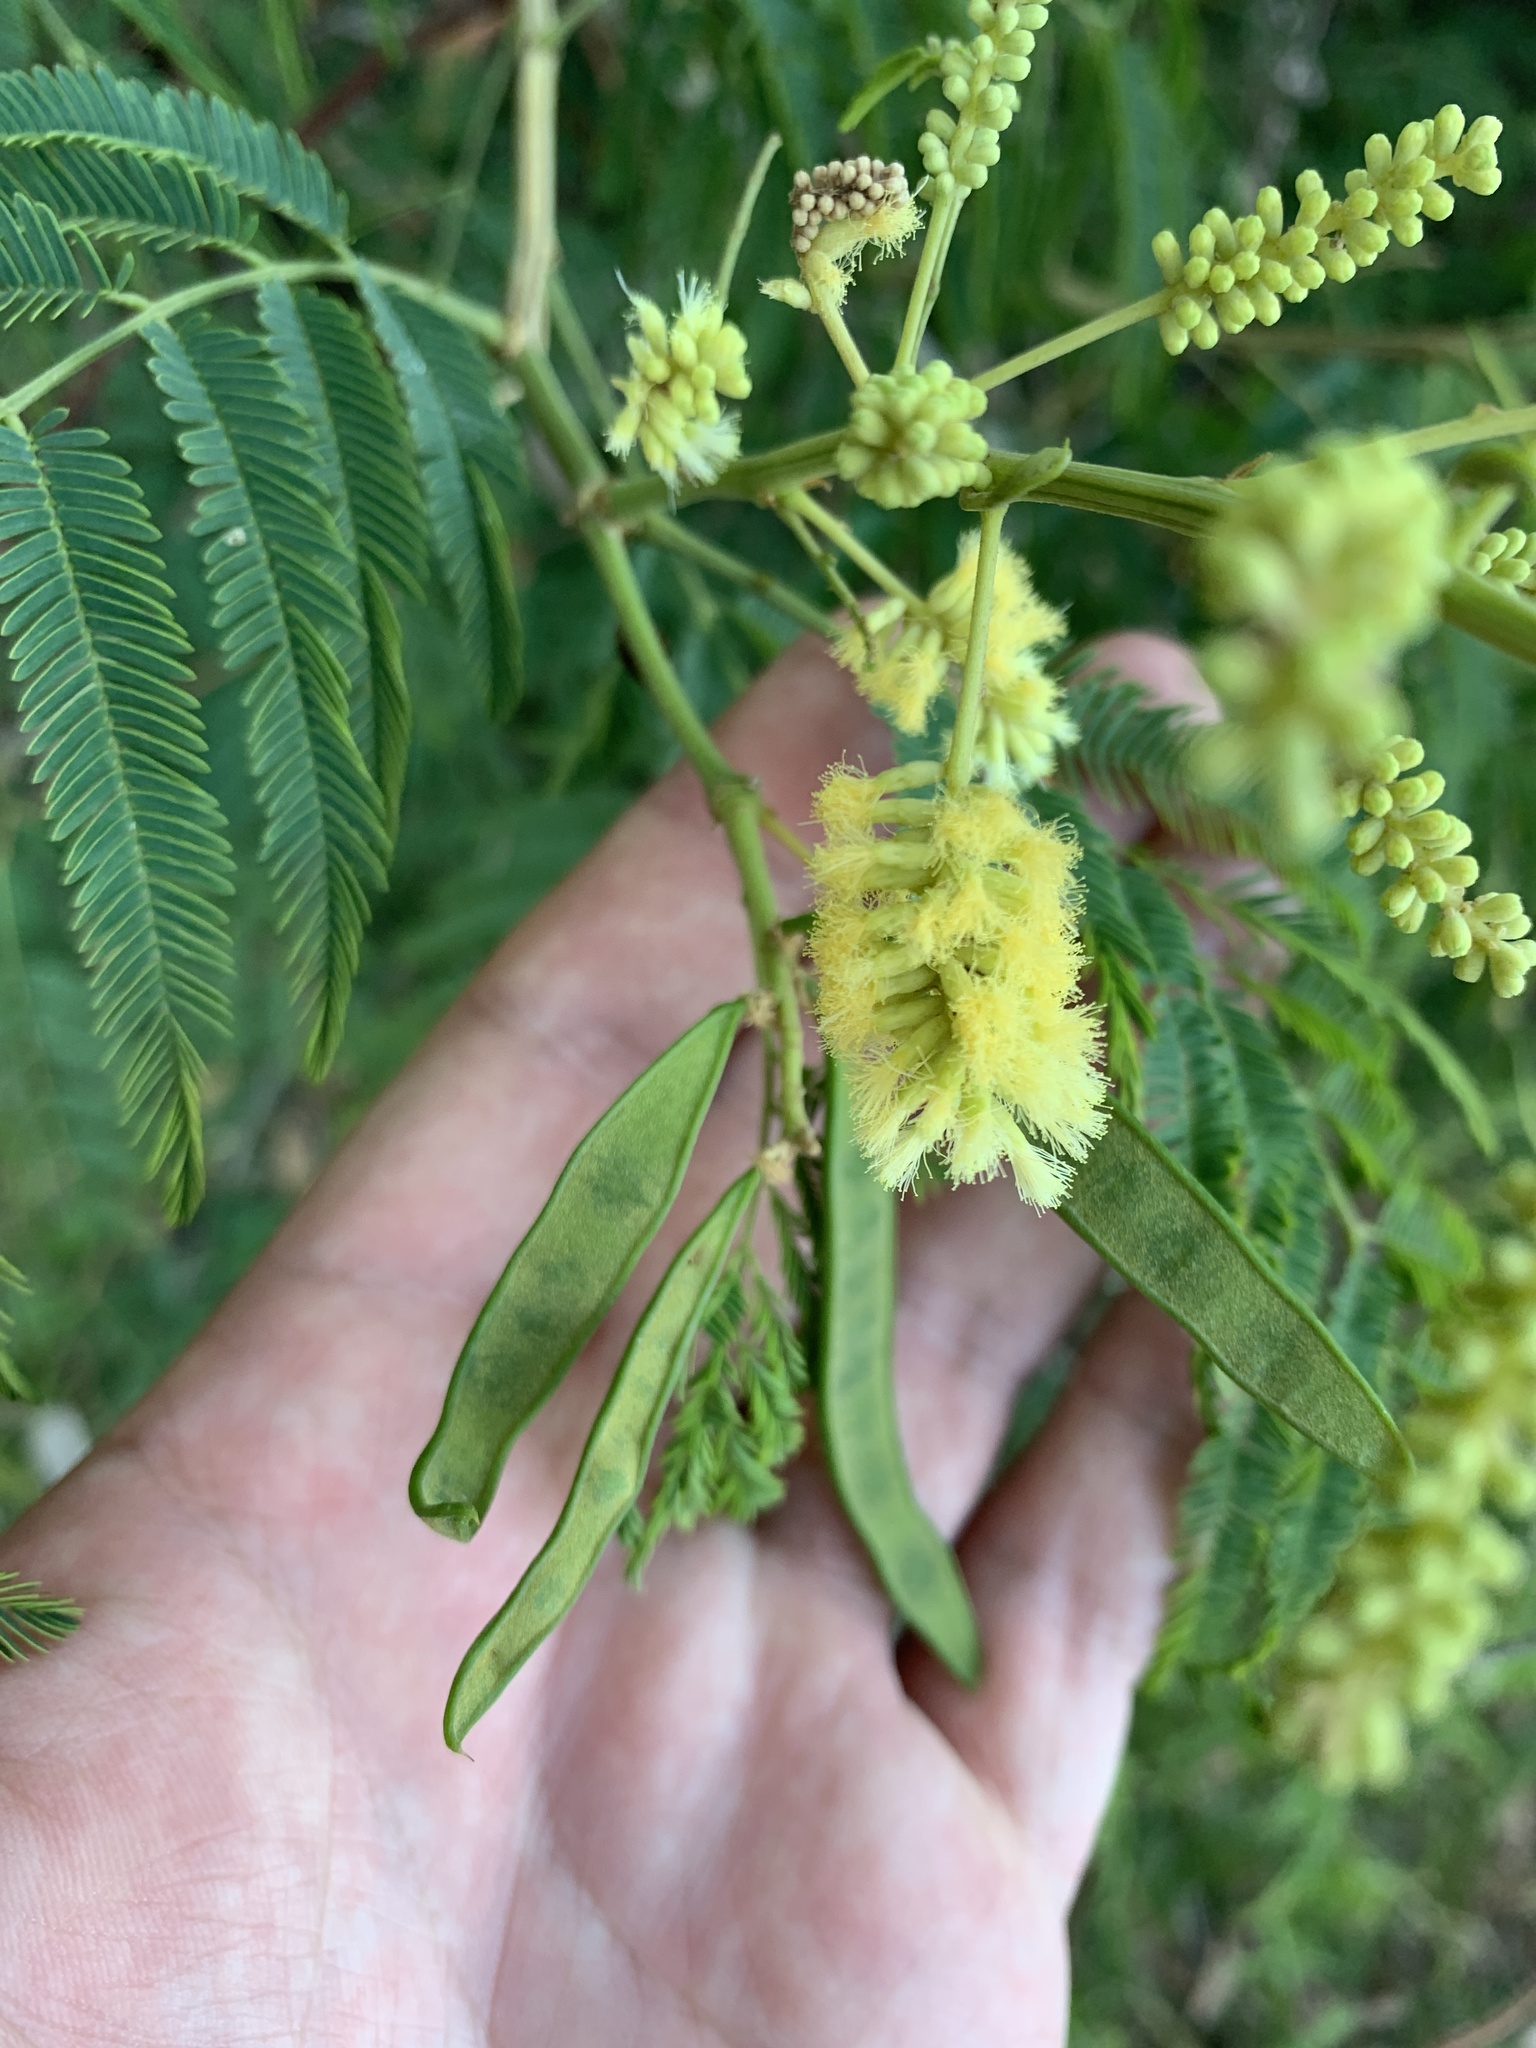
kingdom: Plantae
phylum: Tracheophyta
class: Magnoliopsida
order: Fabales
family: Fabaceae
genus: Senegalia
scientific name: Senegalia bonariensis
